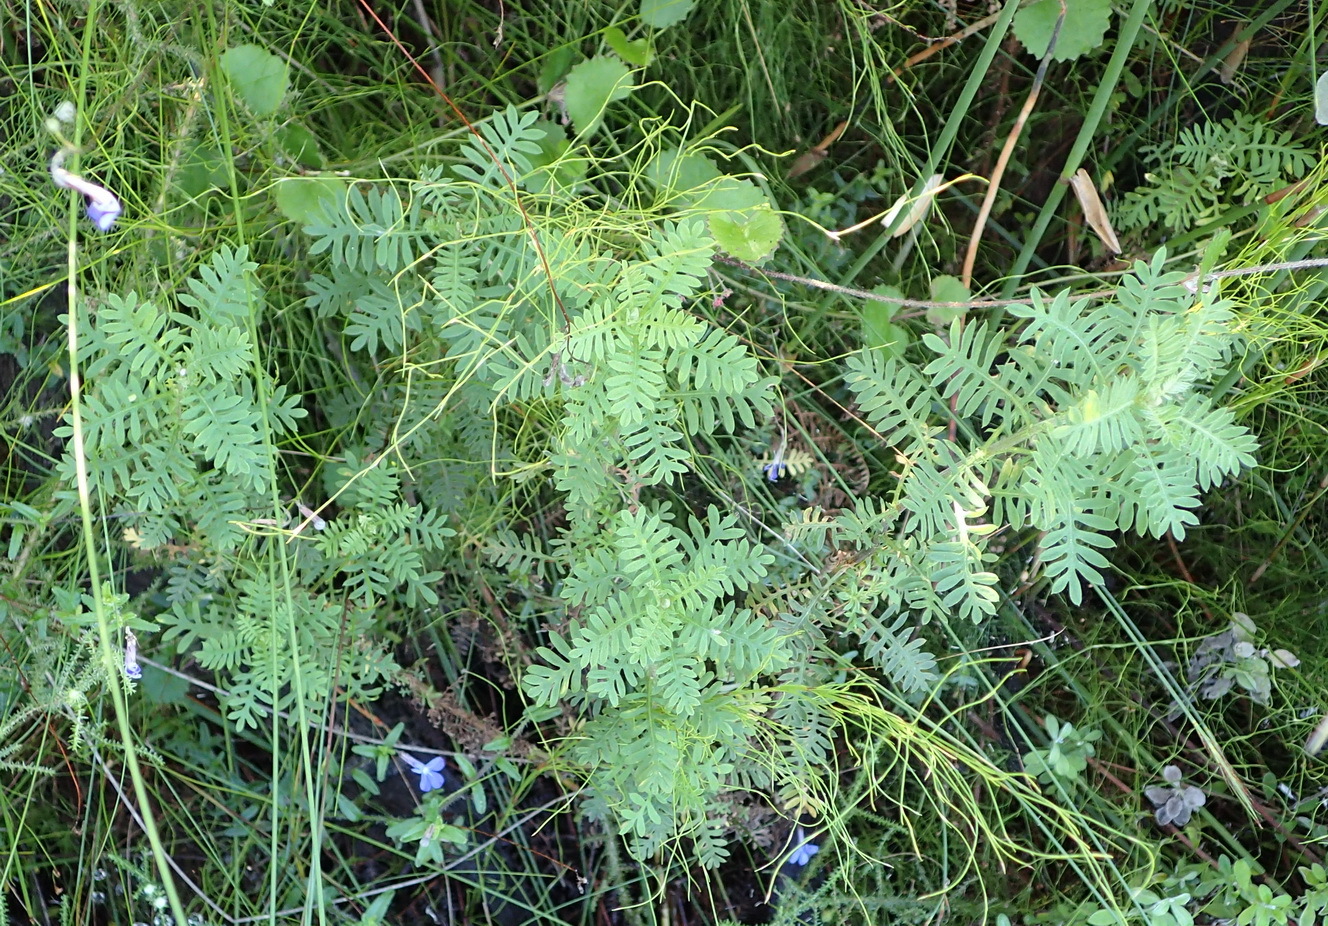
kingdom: Plantae
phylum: Tracheophyta
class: Magnoliopsida
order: Asterales
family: Asteraceae
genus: Hippia
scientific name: Hippia frutescens
